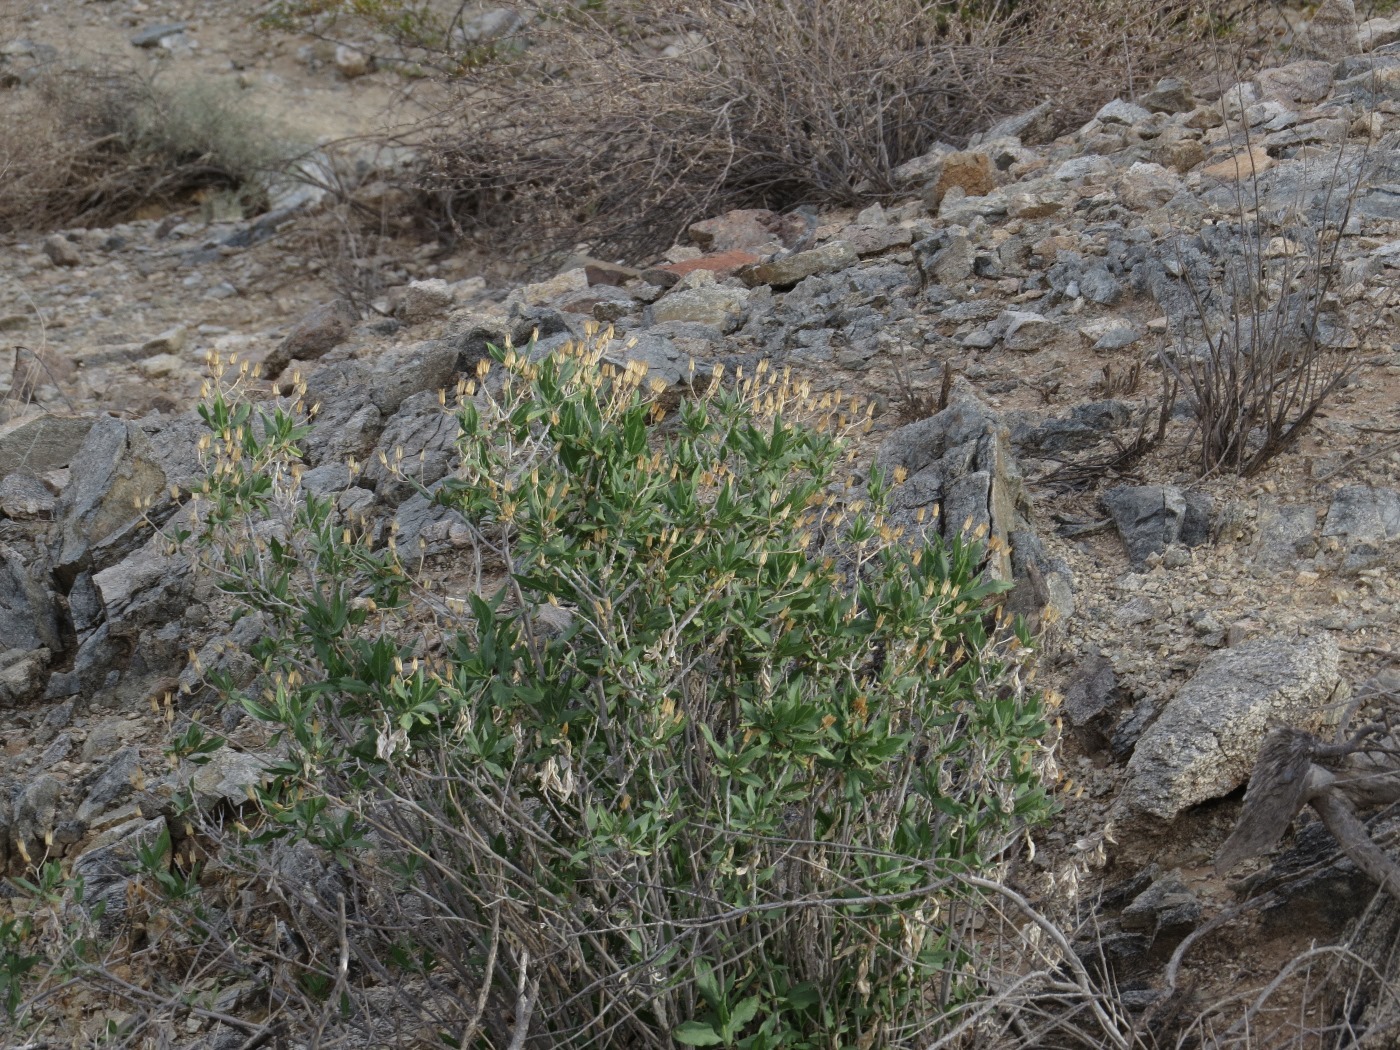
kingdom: Plantae
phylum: Tracheophyta
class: Magnoliopsida
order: Asterales
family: Asteraceae
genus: Trixis
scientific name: Trixis californica
